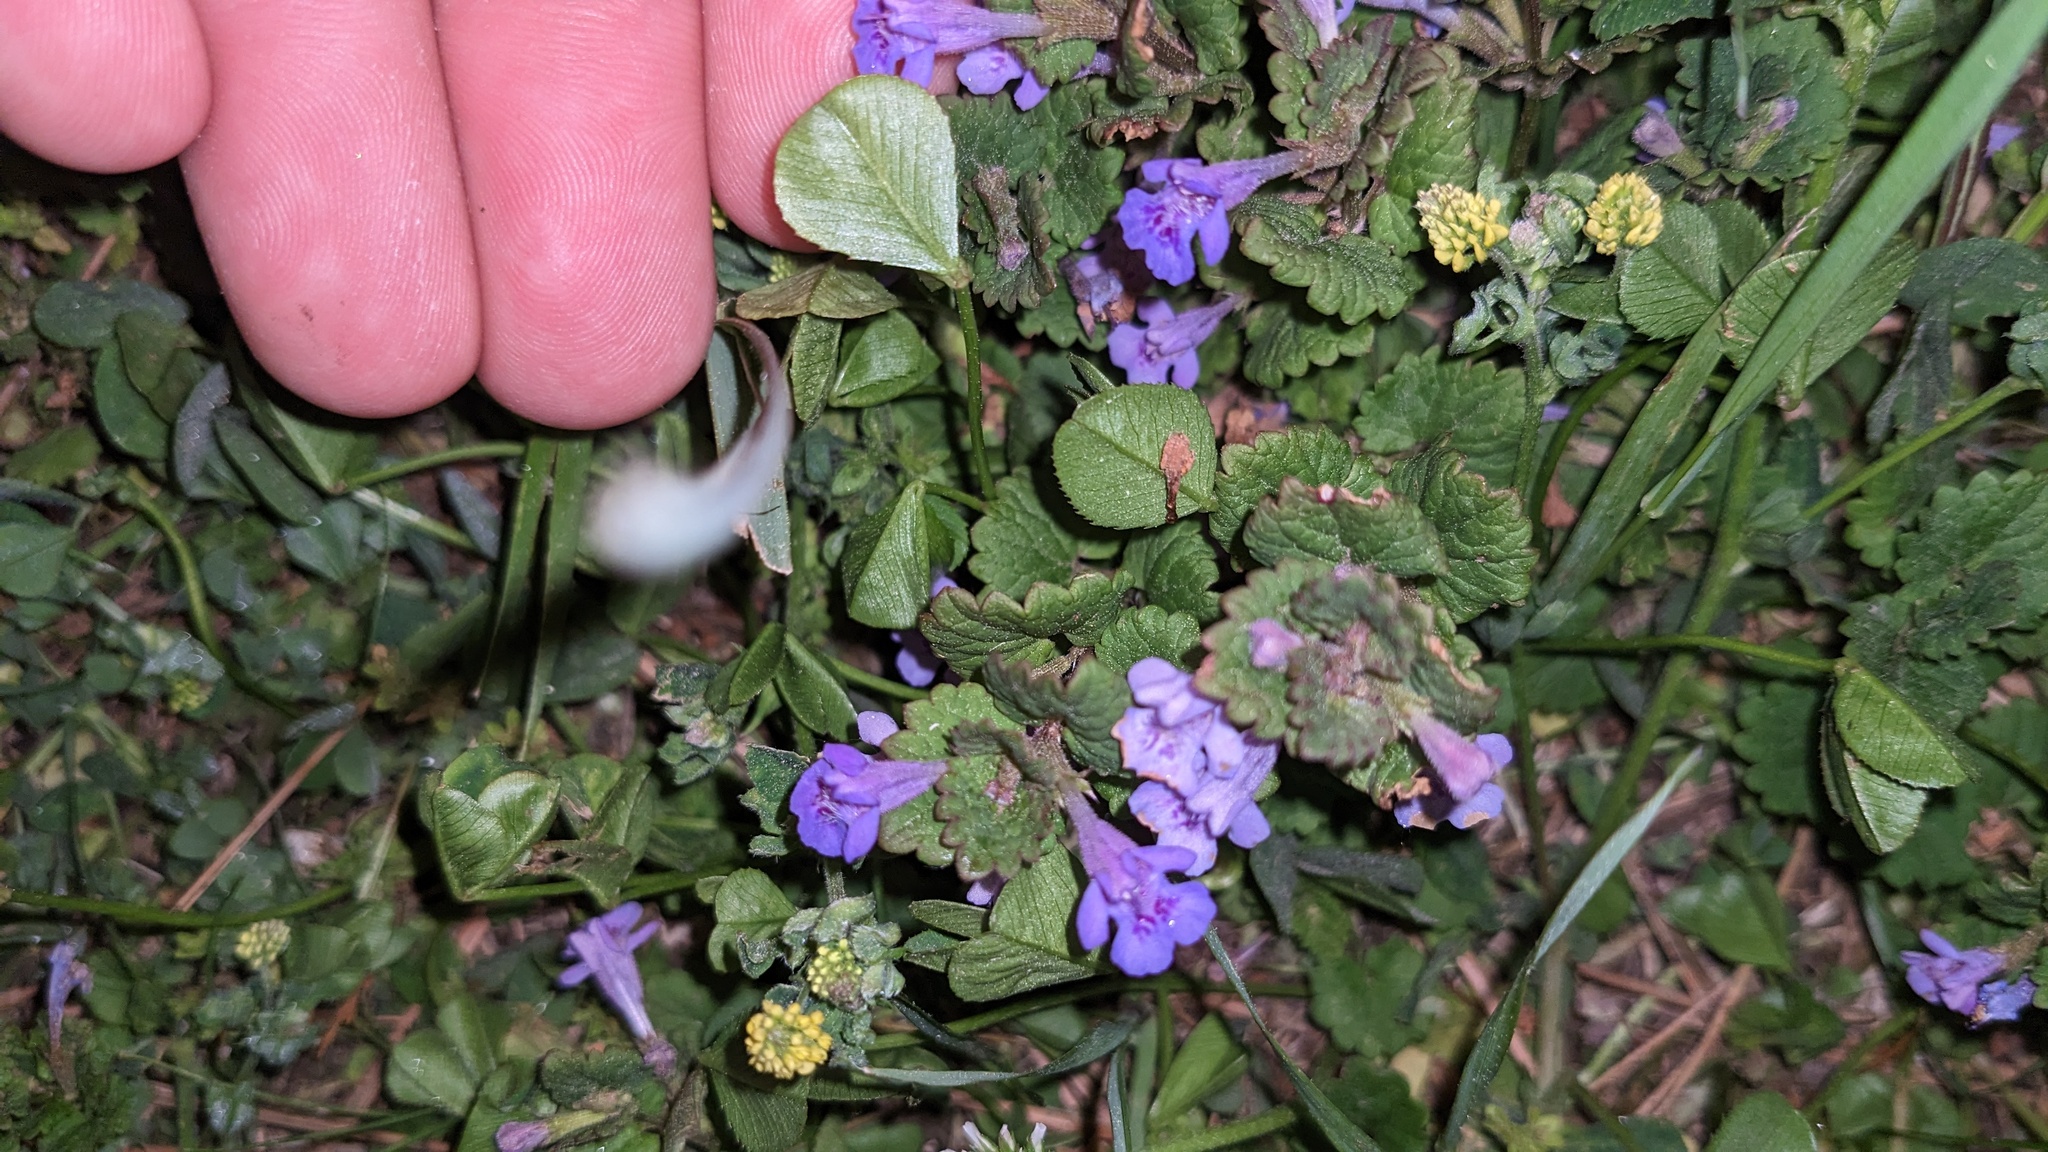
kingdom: Plantae
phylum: Tracheophyta
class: Magnoliopsida
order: Lamiales
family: Lamiaceae
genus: Glechoma
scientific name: Glechoma hederacea
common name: Ground ivy
